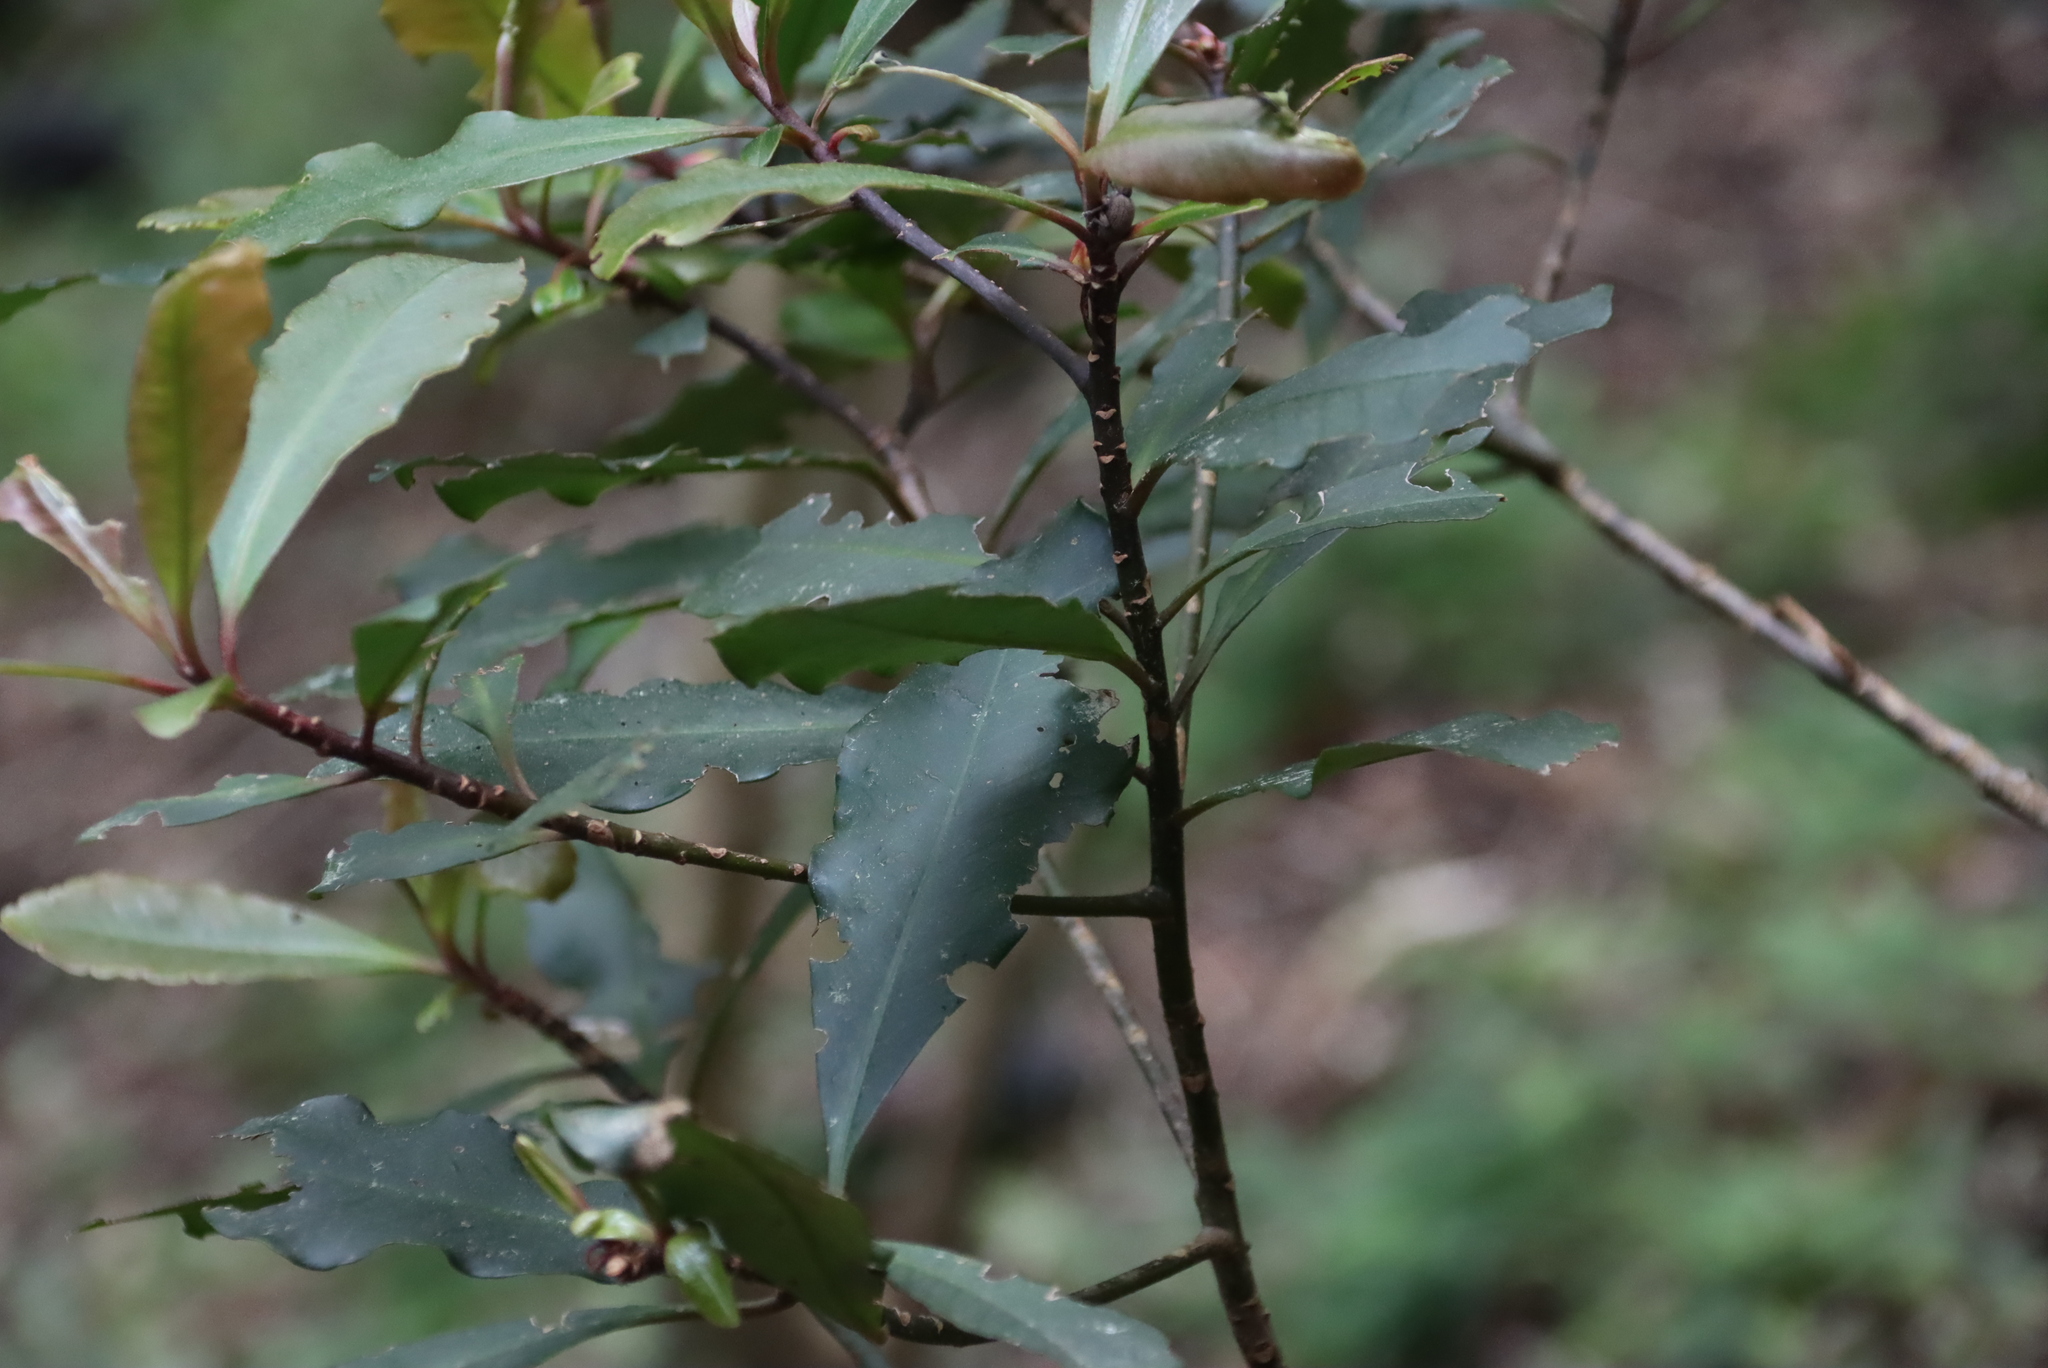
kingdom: Plantae
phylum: Tracheophyta
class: Magnoliopsida
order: Ericales
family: Primulaceae
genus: Myrsine
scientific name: Myrsine melanophloeos
